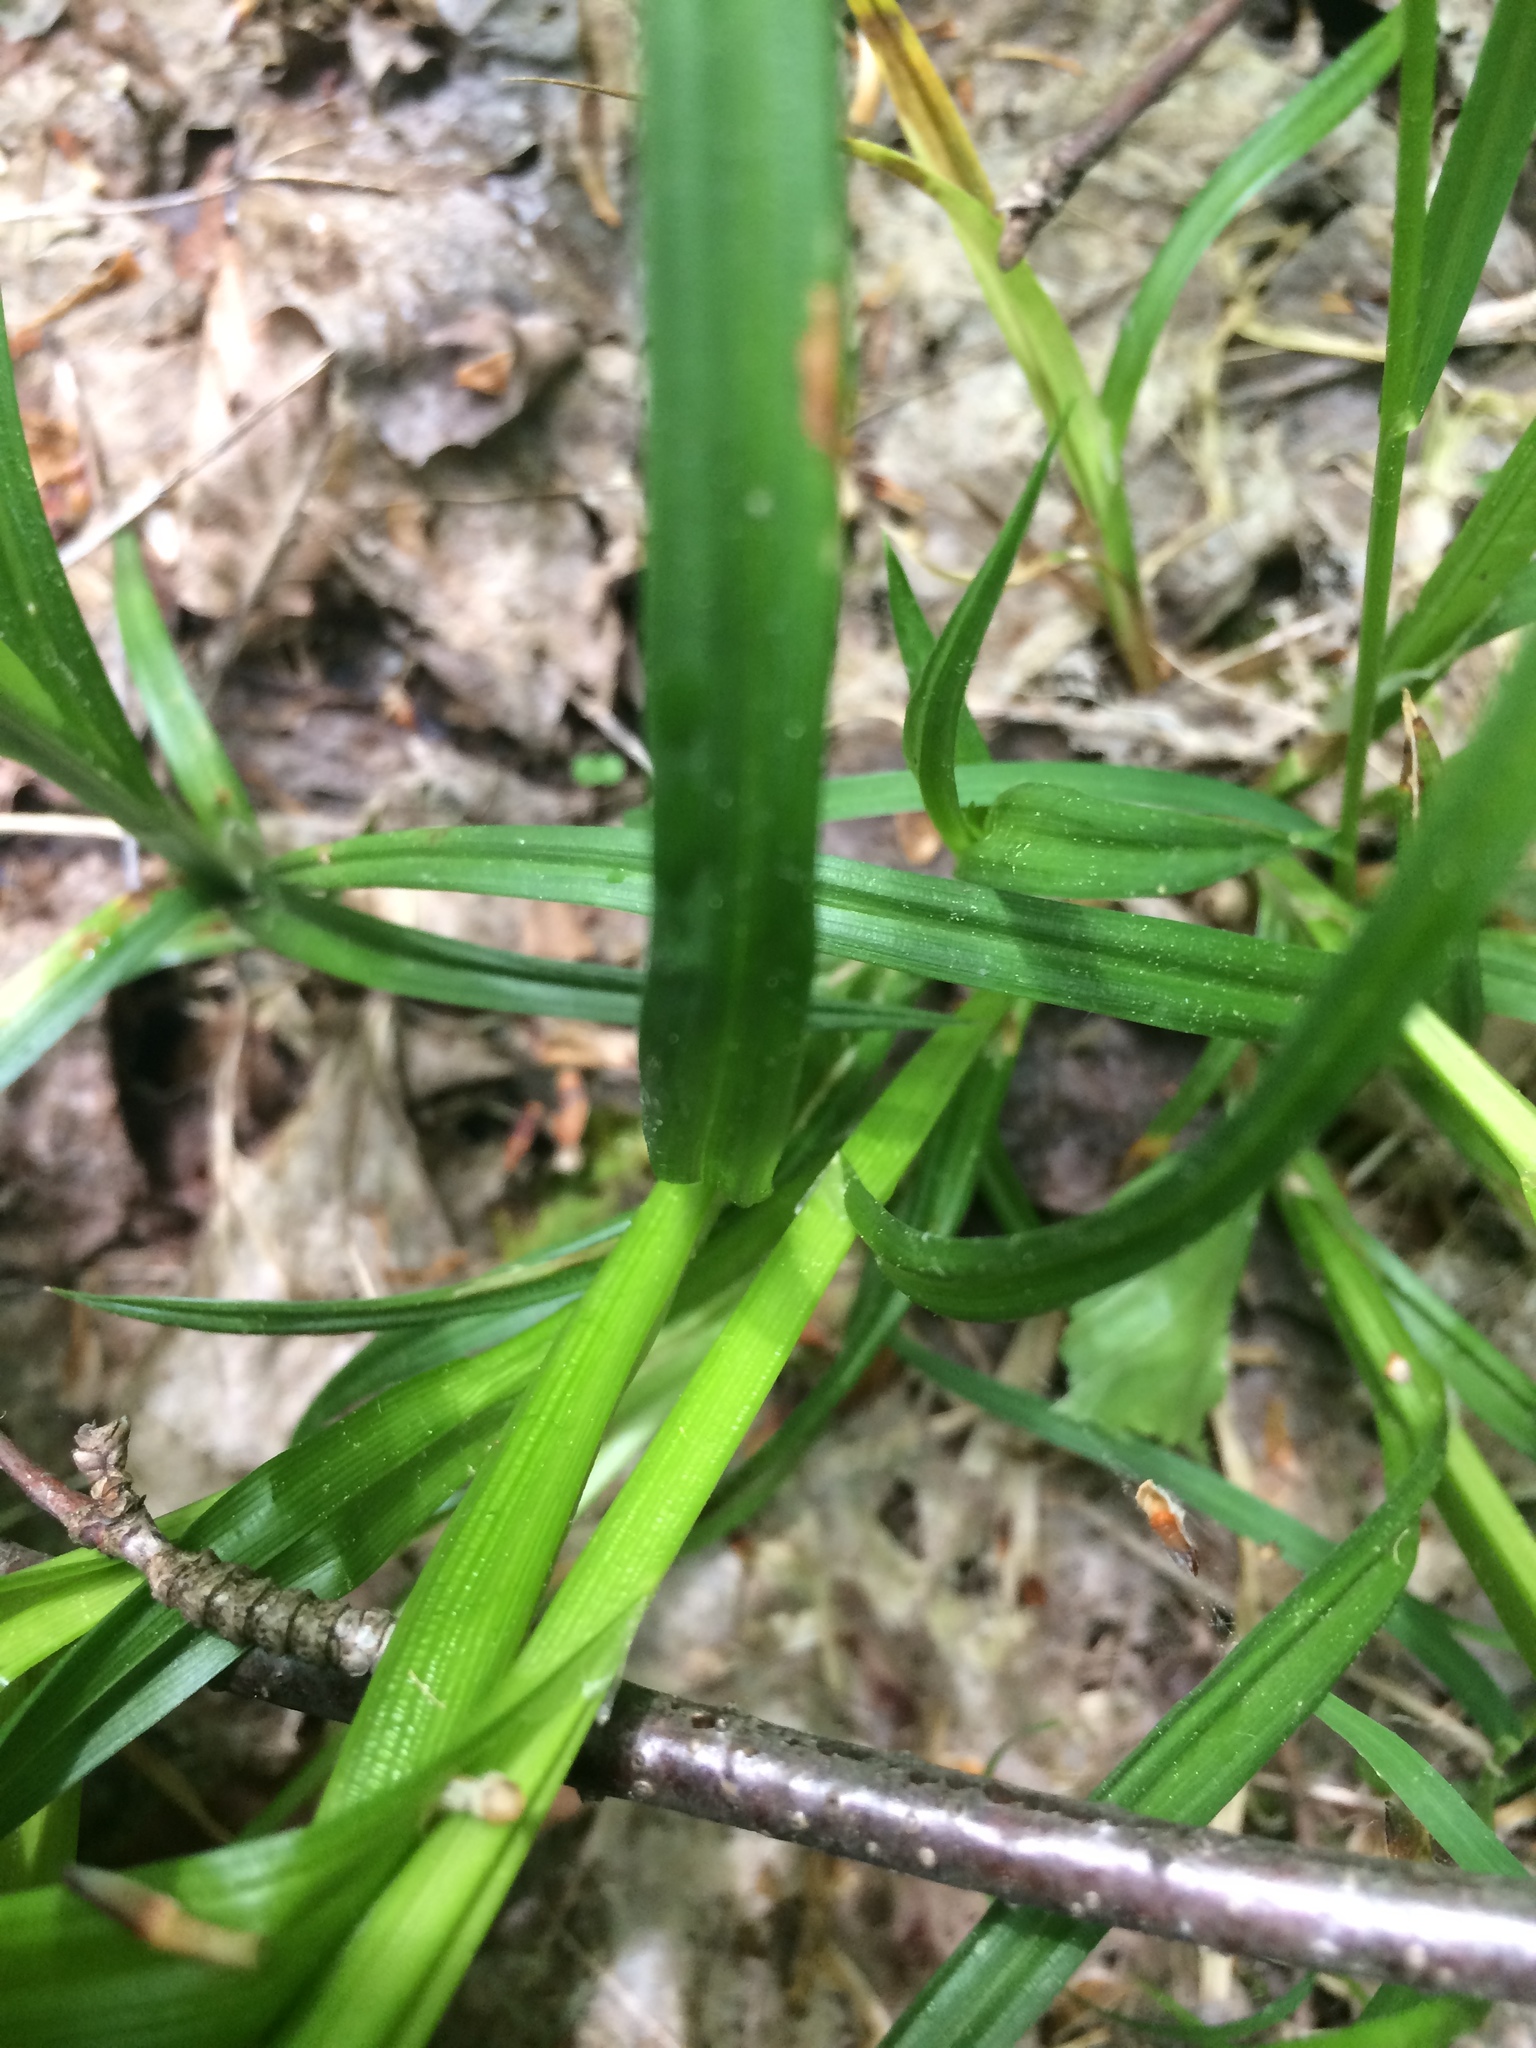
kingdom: Plantae
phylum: Tracheophyta
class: Liliopsida
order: Poales
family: Cyperaceae
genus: Carex
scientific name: Carex stipata
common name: Awl-fruited sedge
